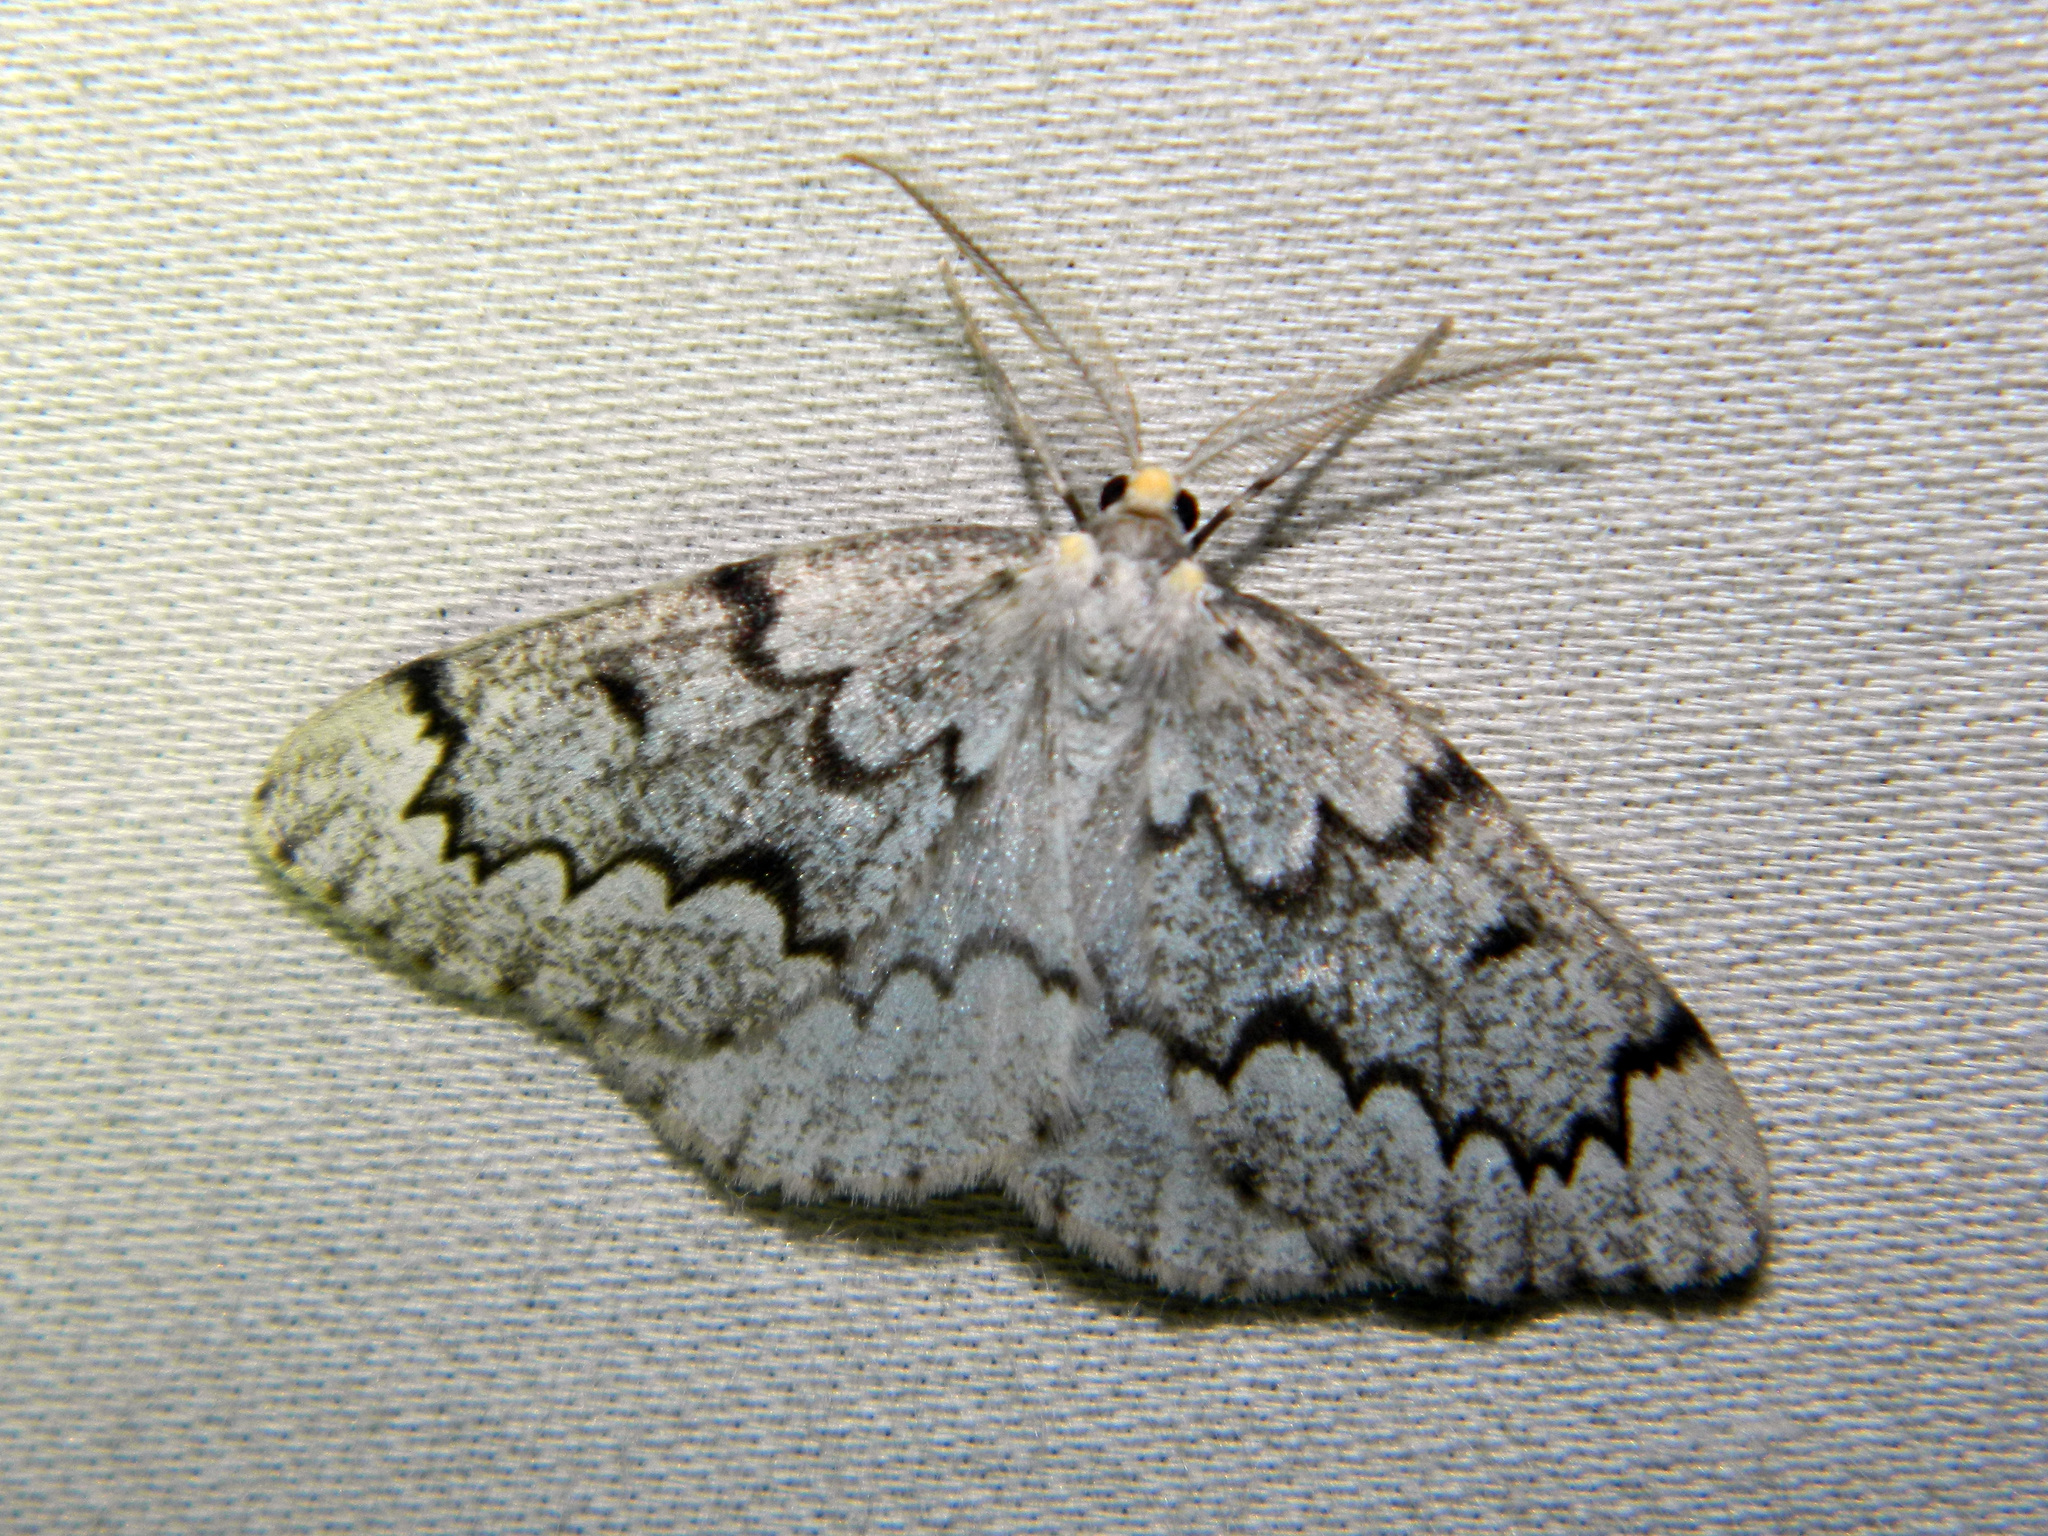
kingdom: Animalia
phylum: Arthropoda
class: Insecta
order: Lepidoptera
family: Geometridae
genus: Nepytia
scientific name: Nepytia canosaria
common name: False hemlock looper
